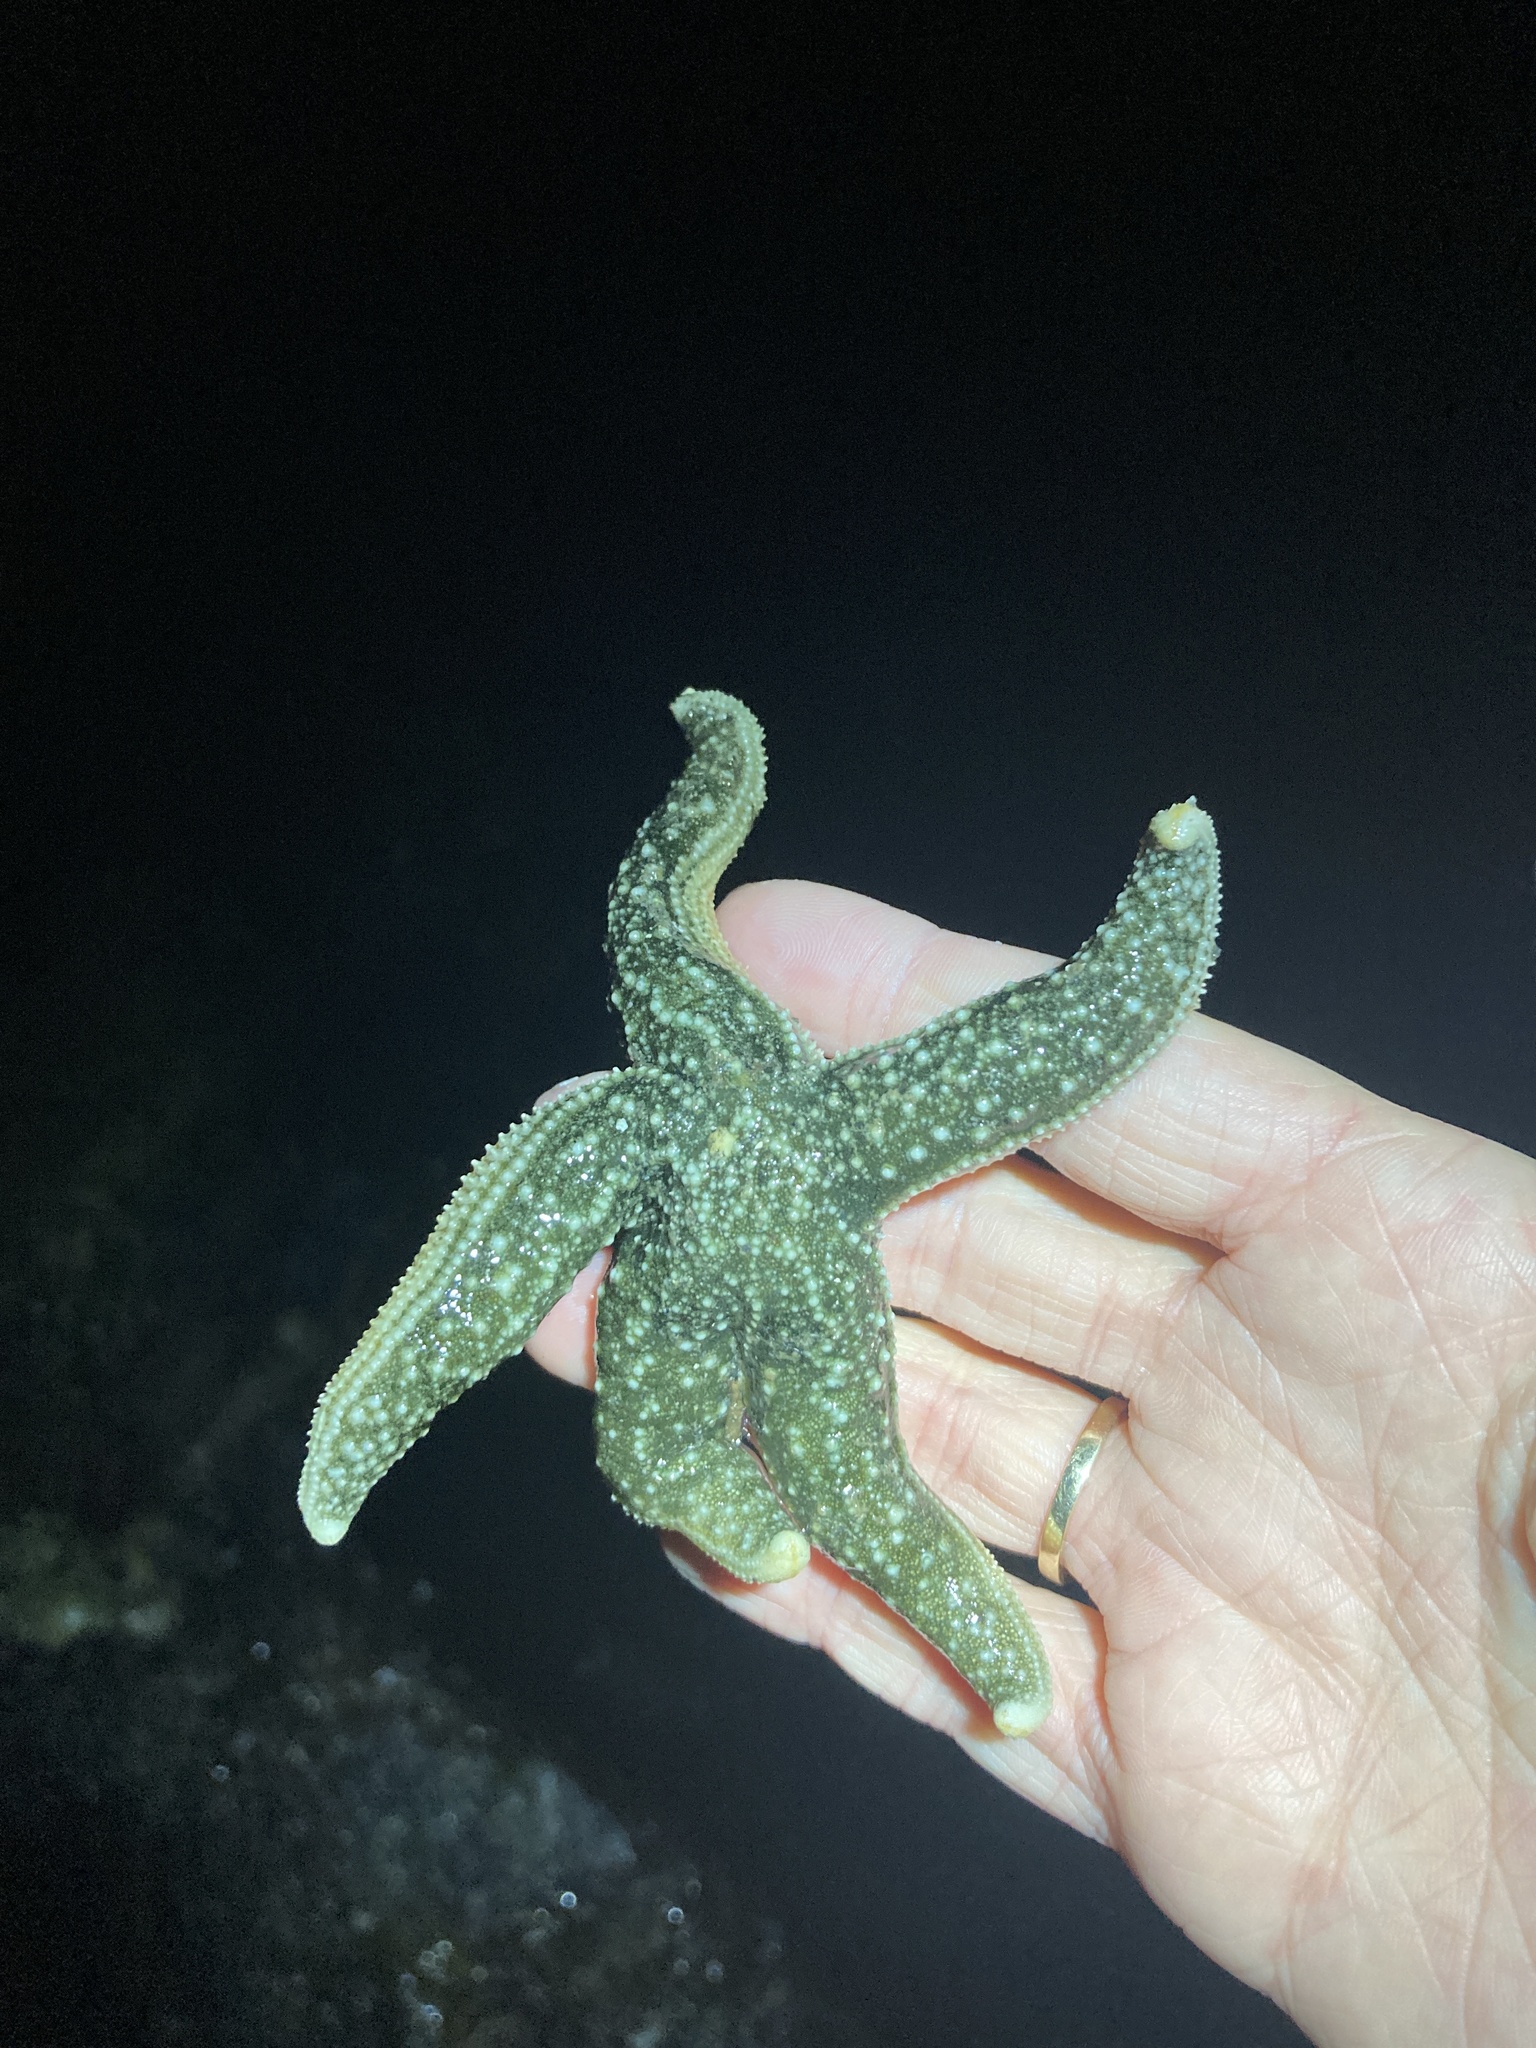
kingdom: Animalia
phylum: Echinodermata
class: Asteroidea
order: Forcipulatida
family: Asteriidae
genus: Evasterias
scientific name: Evasterias troschelii
